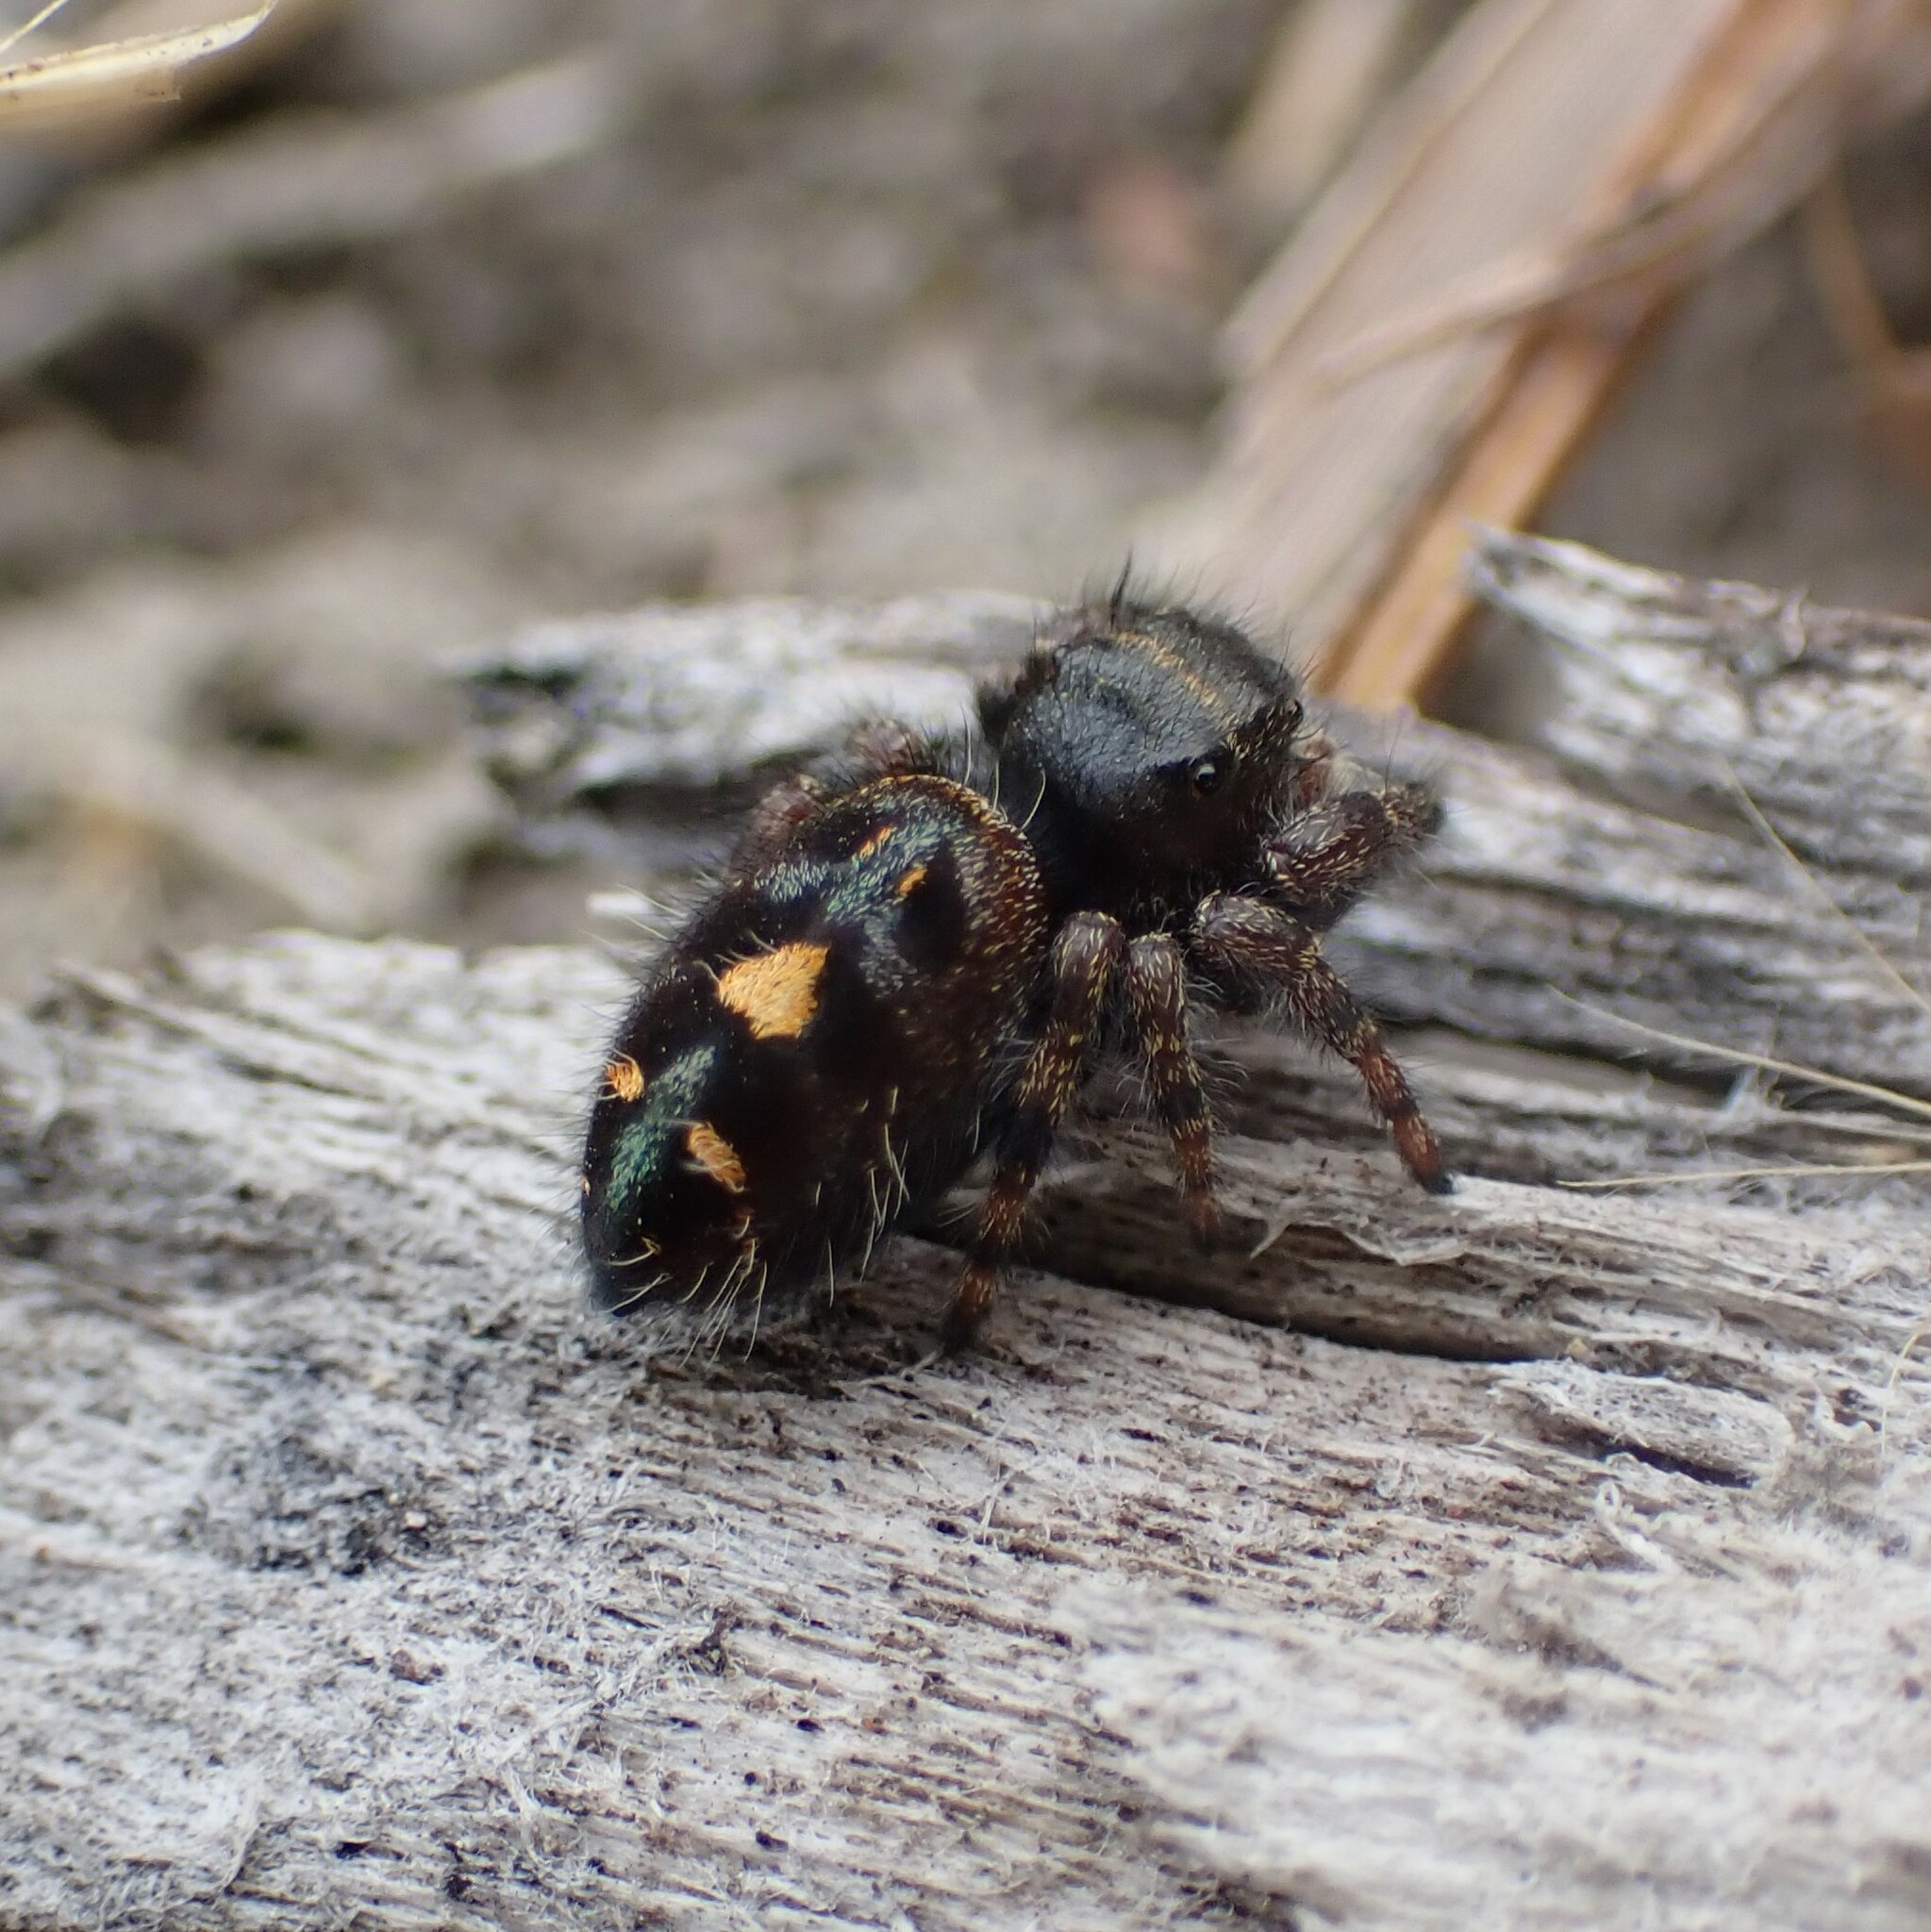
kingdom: Animalia
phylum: Arthropoda
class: Arachnida
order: Araneae
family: Salticidae
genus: Phidippus
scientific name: Phidippus audax
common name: Bold jumper
